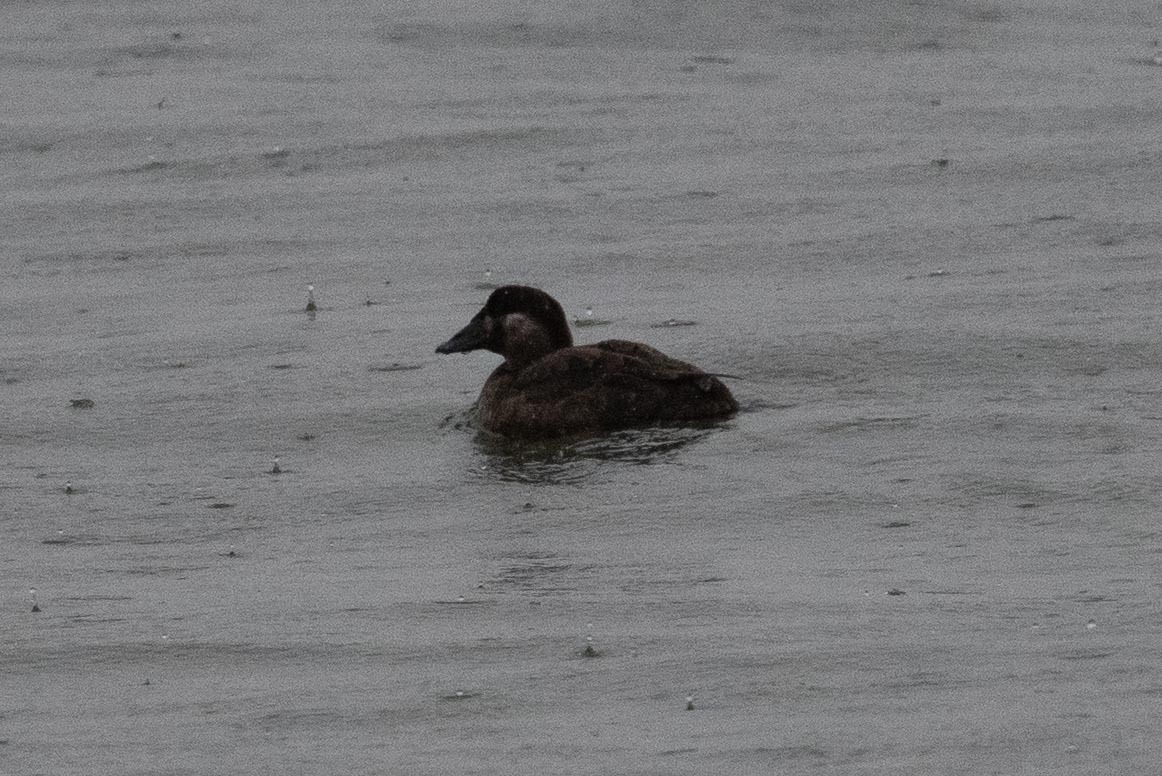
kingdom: Animalia
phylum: Chordata
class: Aves
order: Anseriformes
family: Anatidae
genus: Melanitta
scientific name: Melanitta perspicillata
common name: Surf scoter
